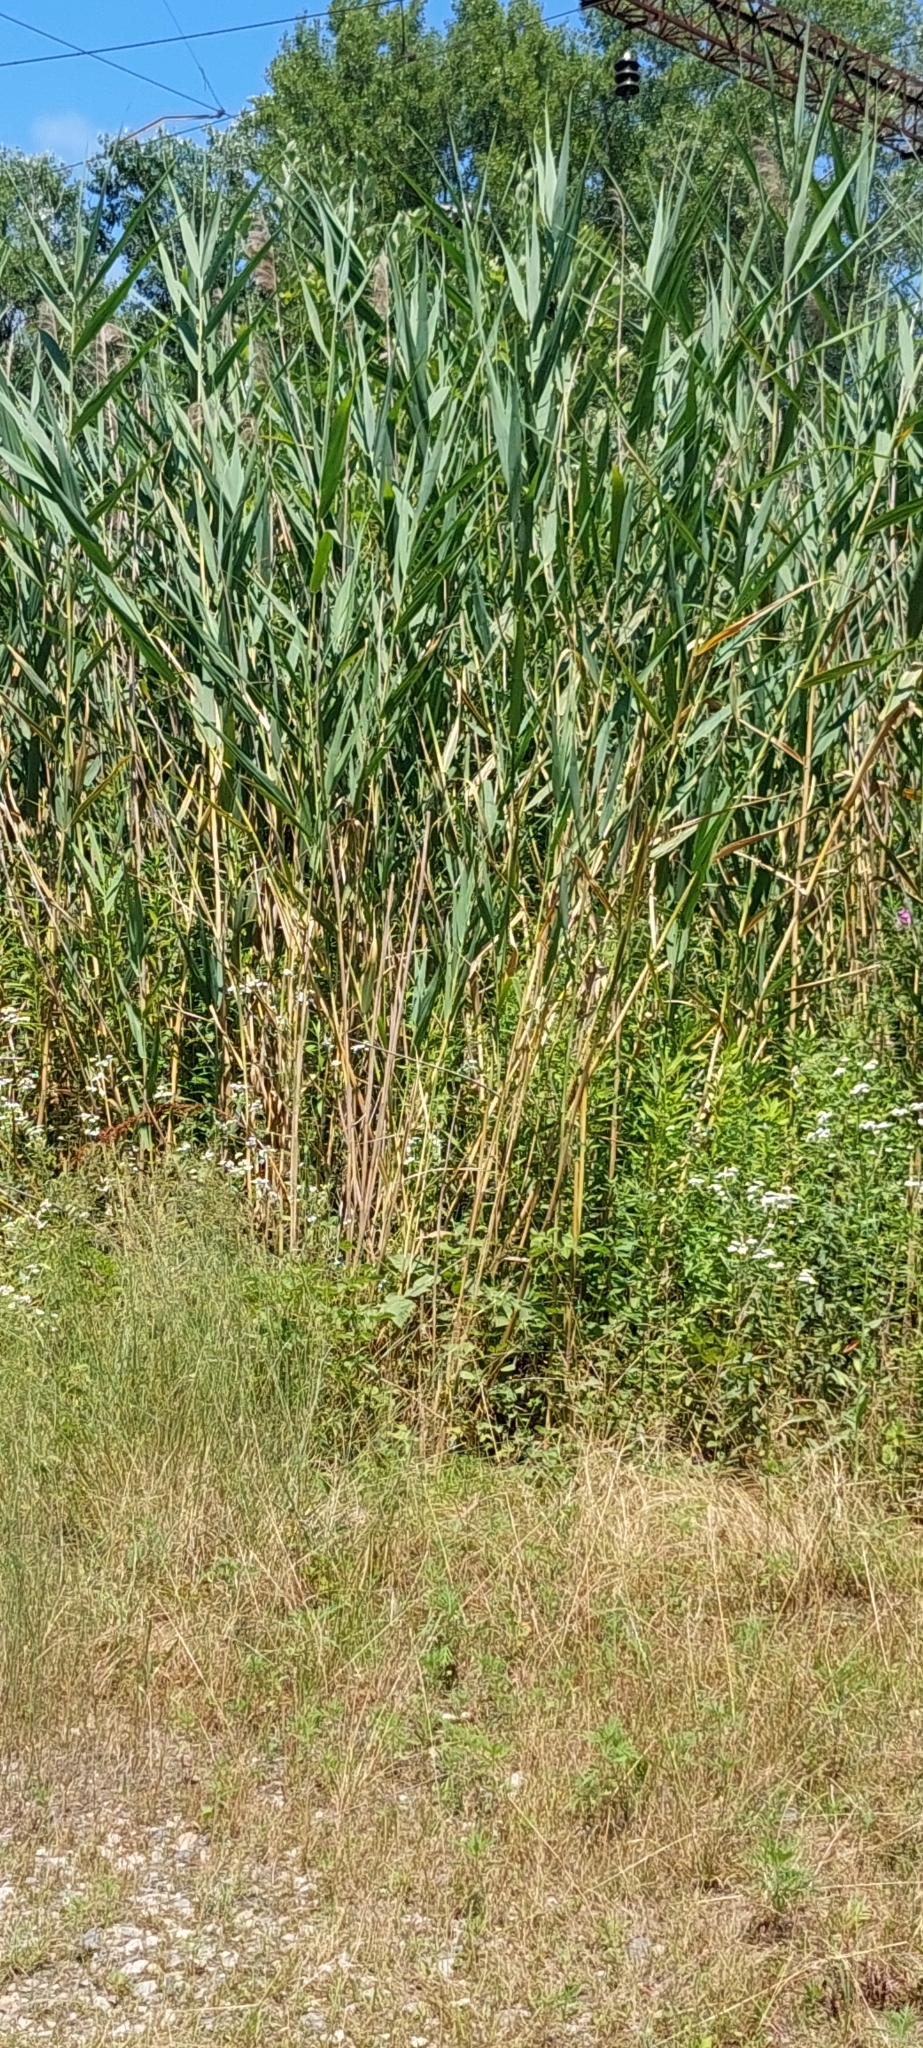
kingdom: Plantae
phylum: Tracheophyta
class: Liliopsida
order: Poales
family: Poaceae
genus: Phragmites
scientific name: Phragmites australis
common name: Common reed
